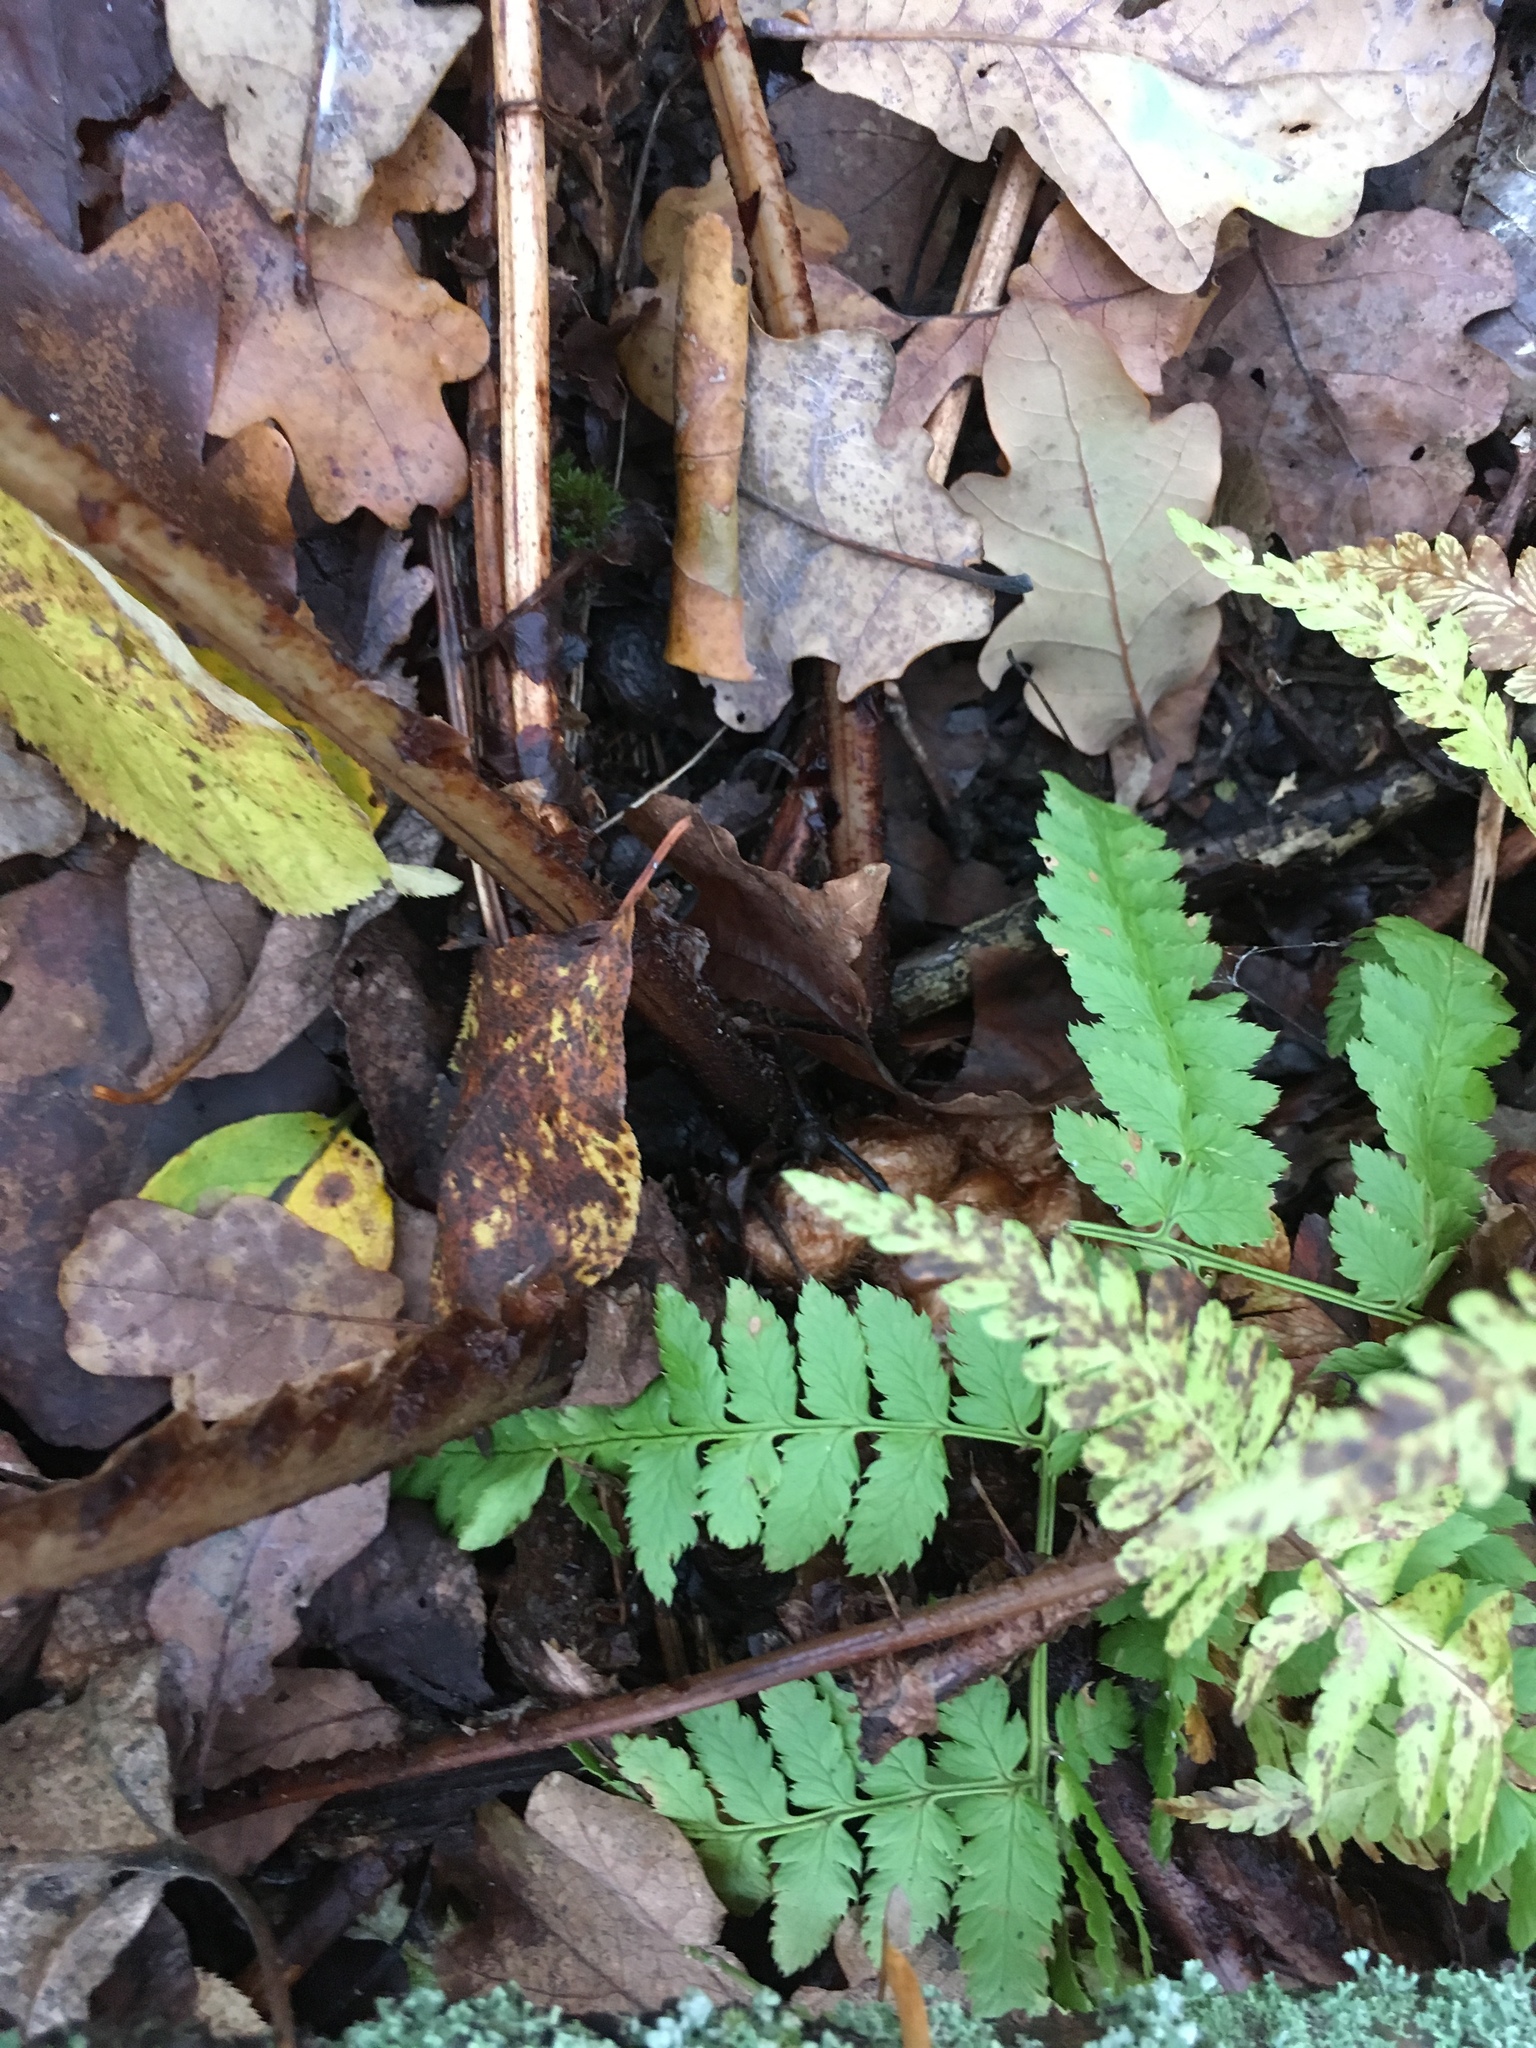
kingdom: Plantae
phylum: Tracheophyta
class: Polypodiopsida
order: Polypodiales
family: Dryopteridaceae
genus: Dryopteris
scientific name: Dryopteris filix-mas
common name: Male fern
